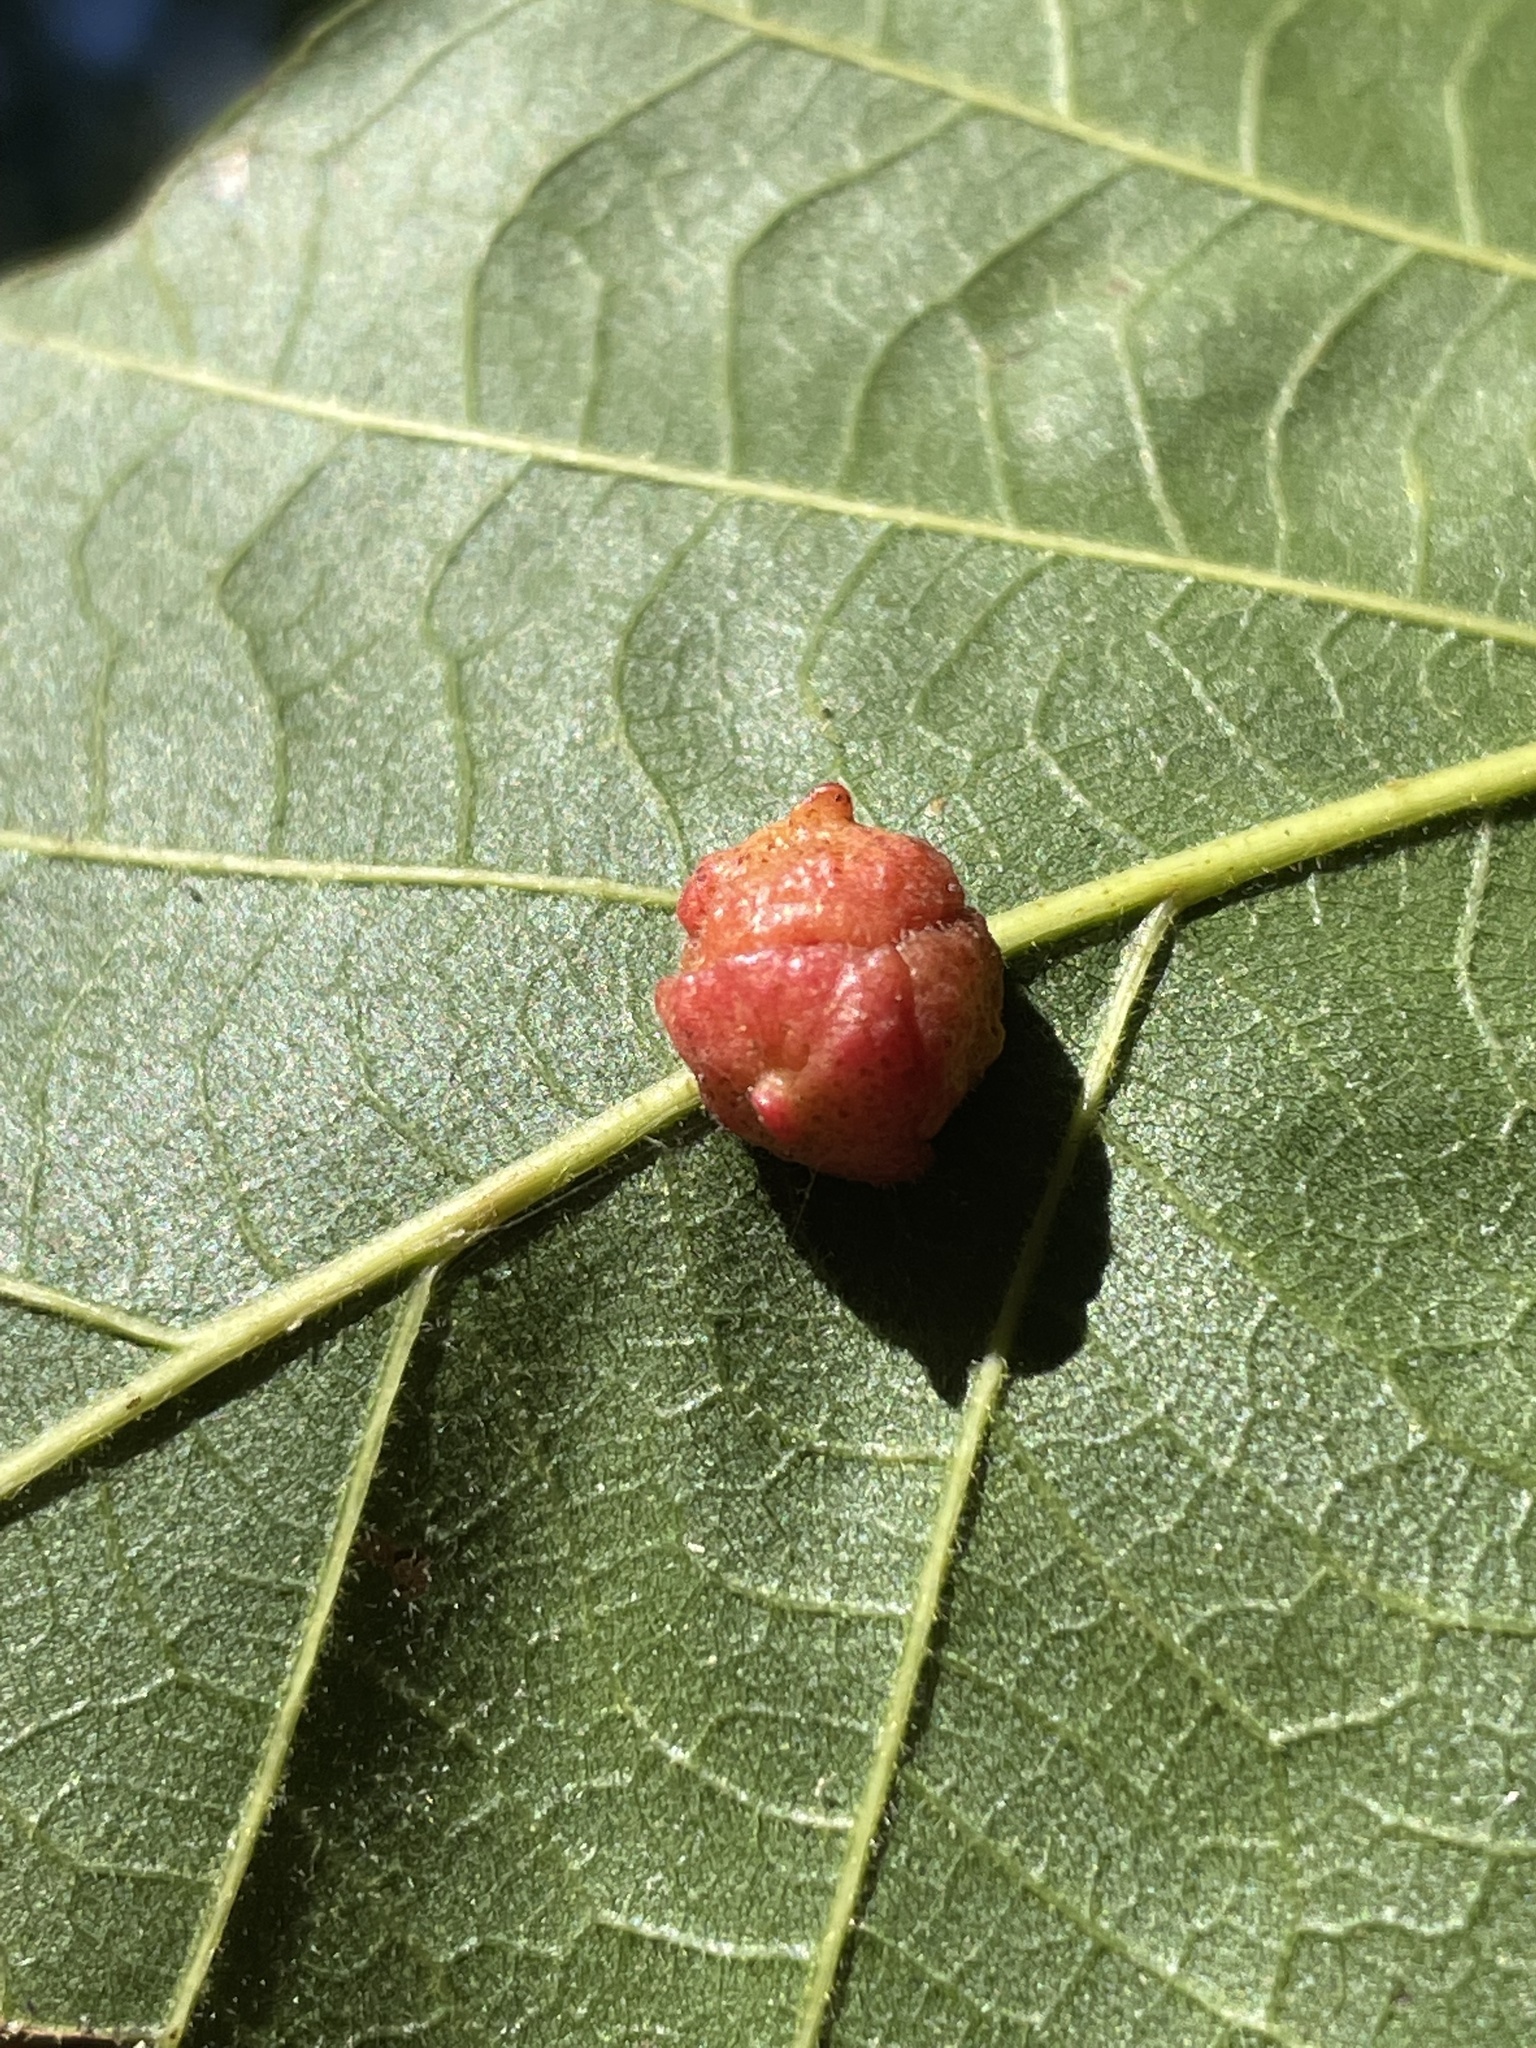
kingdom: Animalia
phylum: Arthropoda
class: Insecta
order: Hymenoptera
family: Cynipidae
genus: Andricus
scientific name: Andricus
